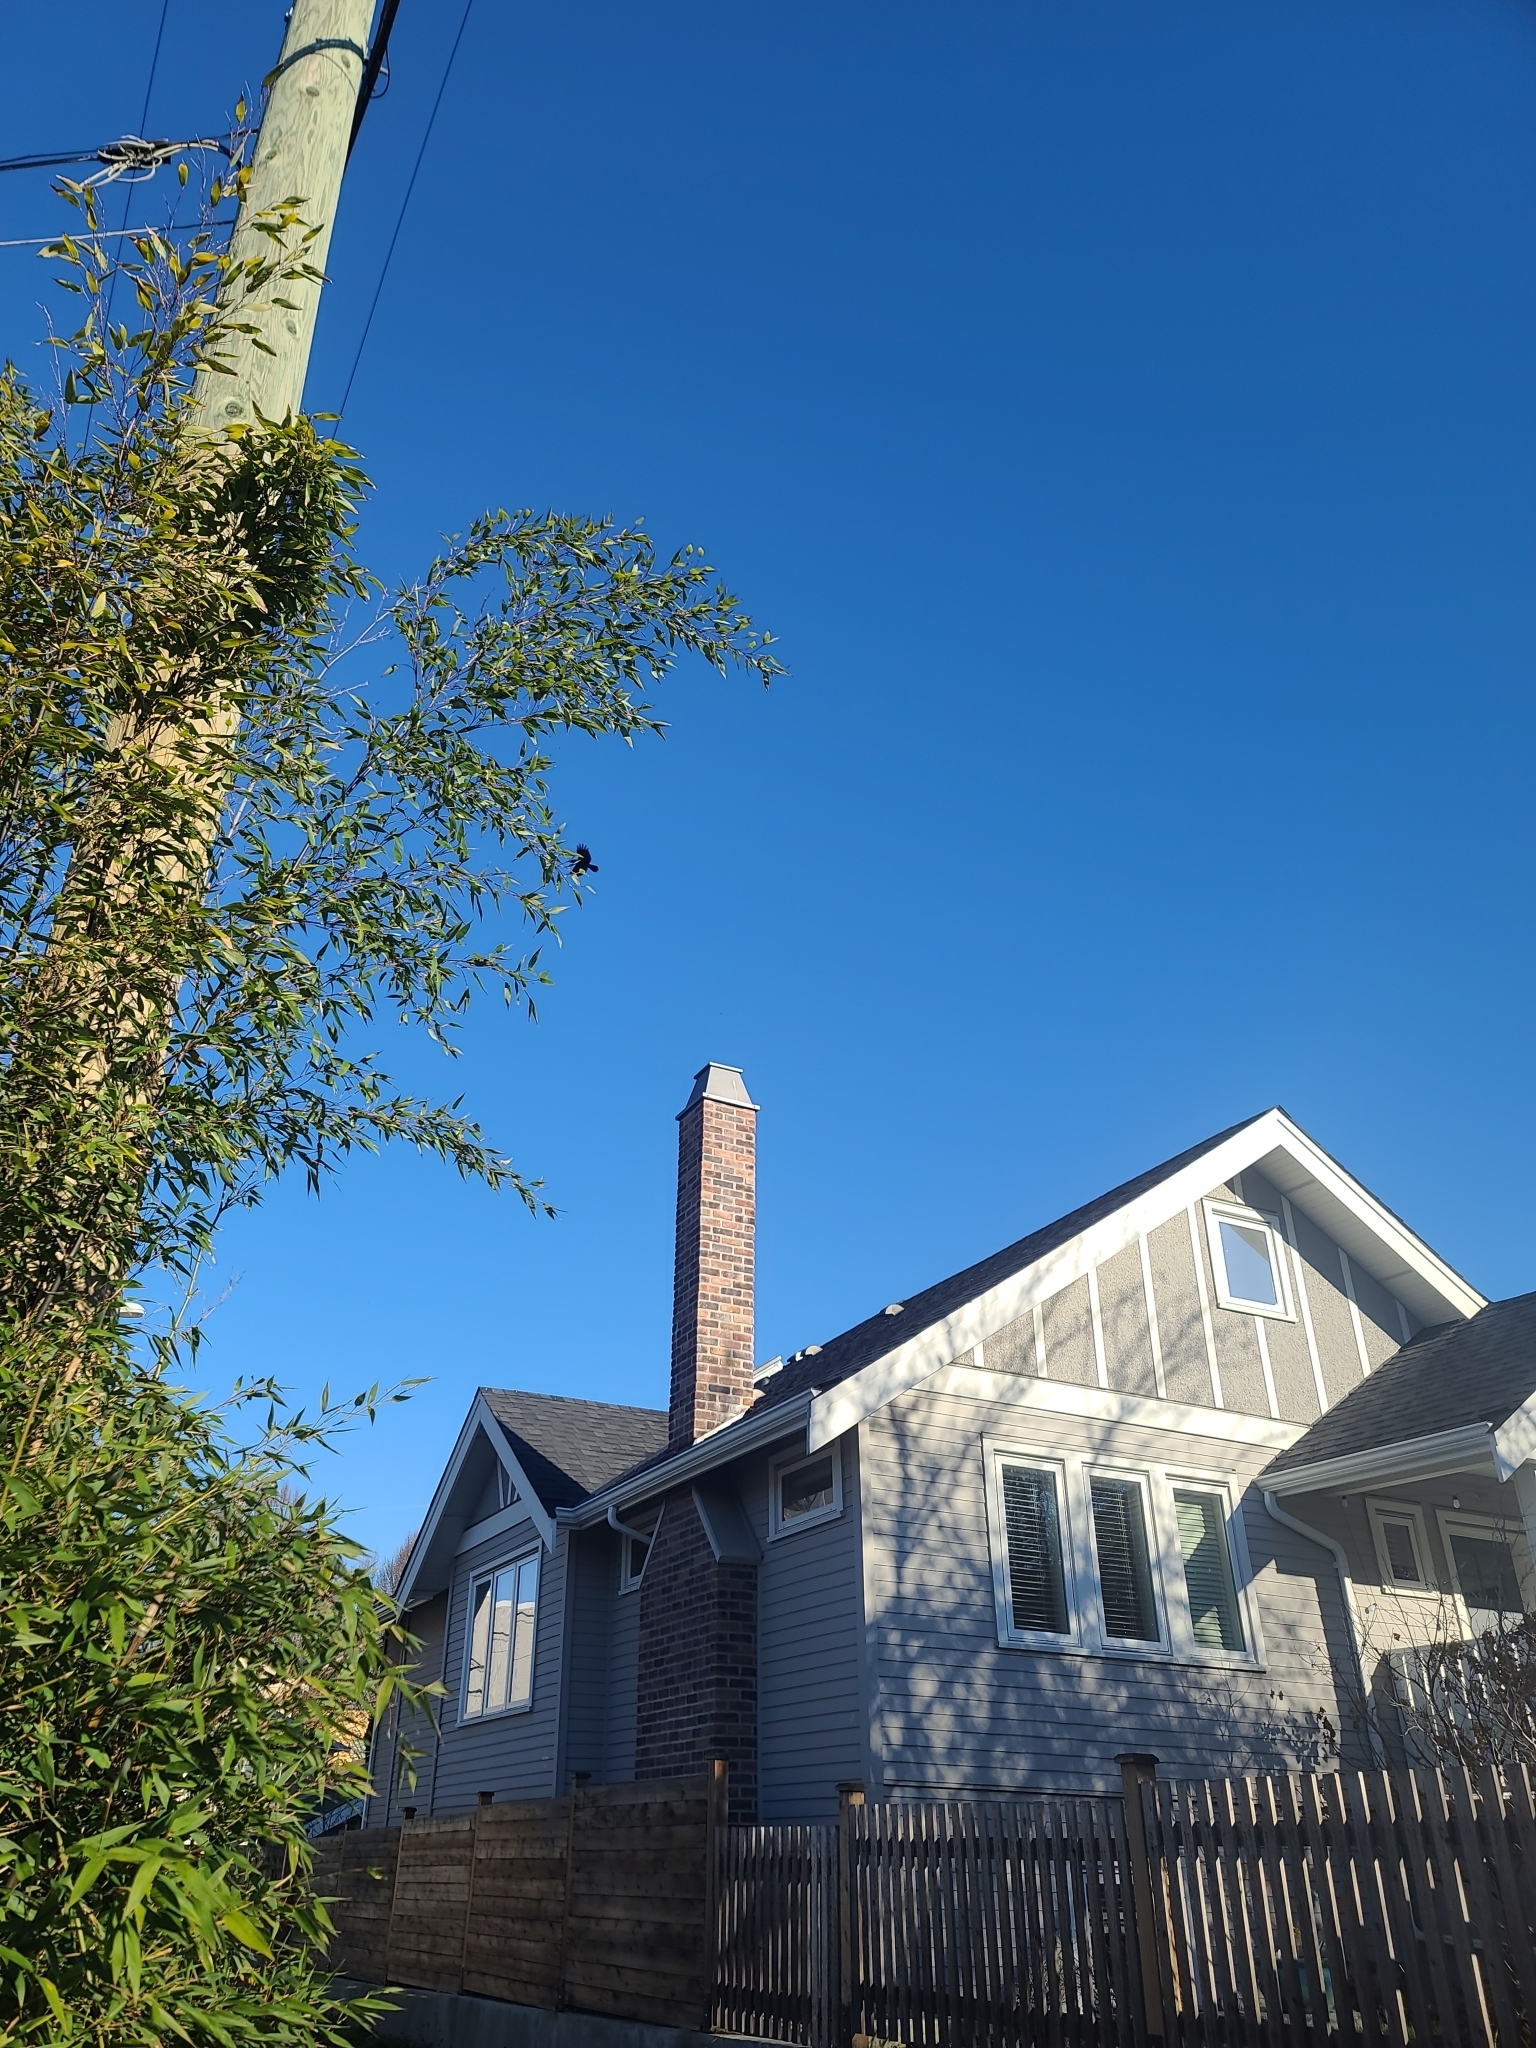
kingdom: Animalia
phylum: Chordata
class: Aves
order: Passeriformes
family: Corvidae
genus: Corvus
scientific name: Corvus brachyrhynchos
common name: American crow
